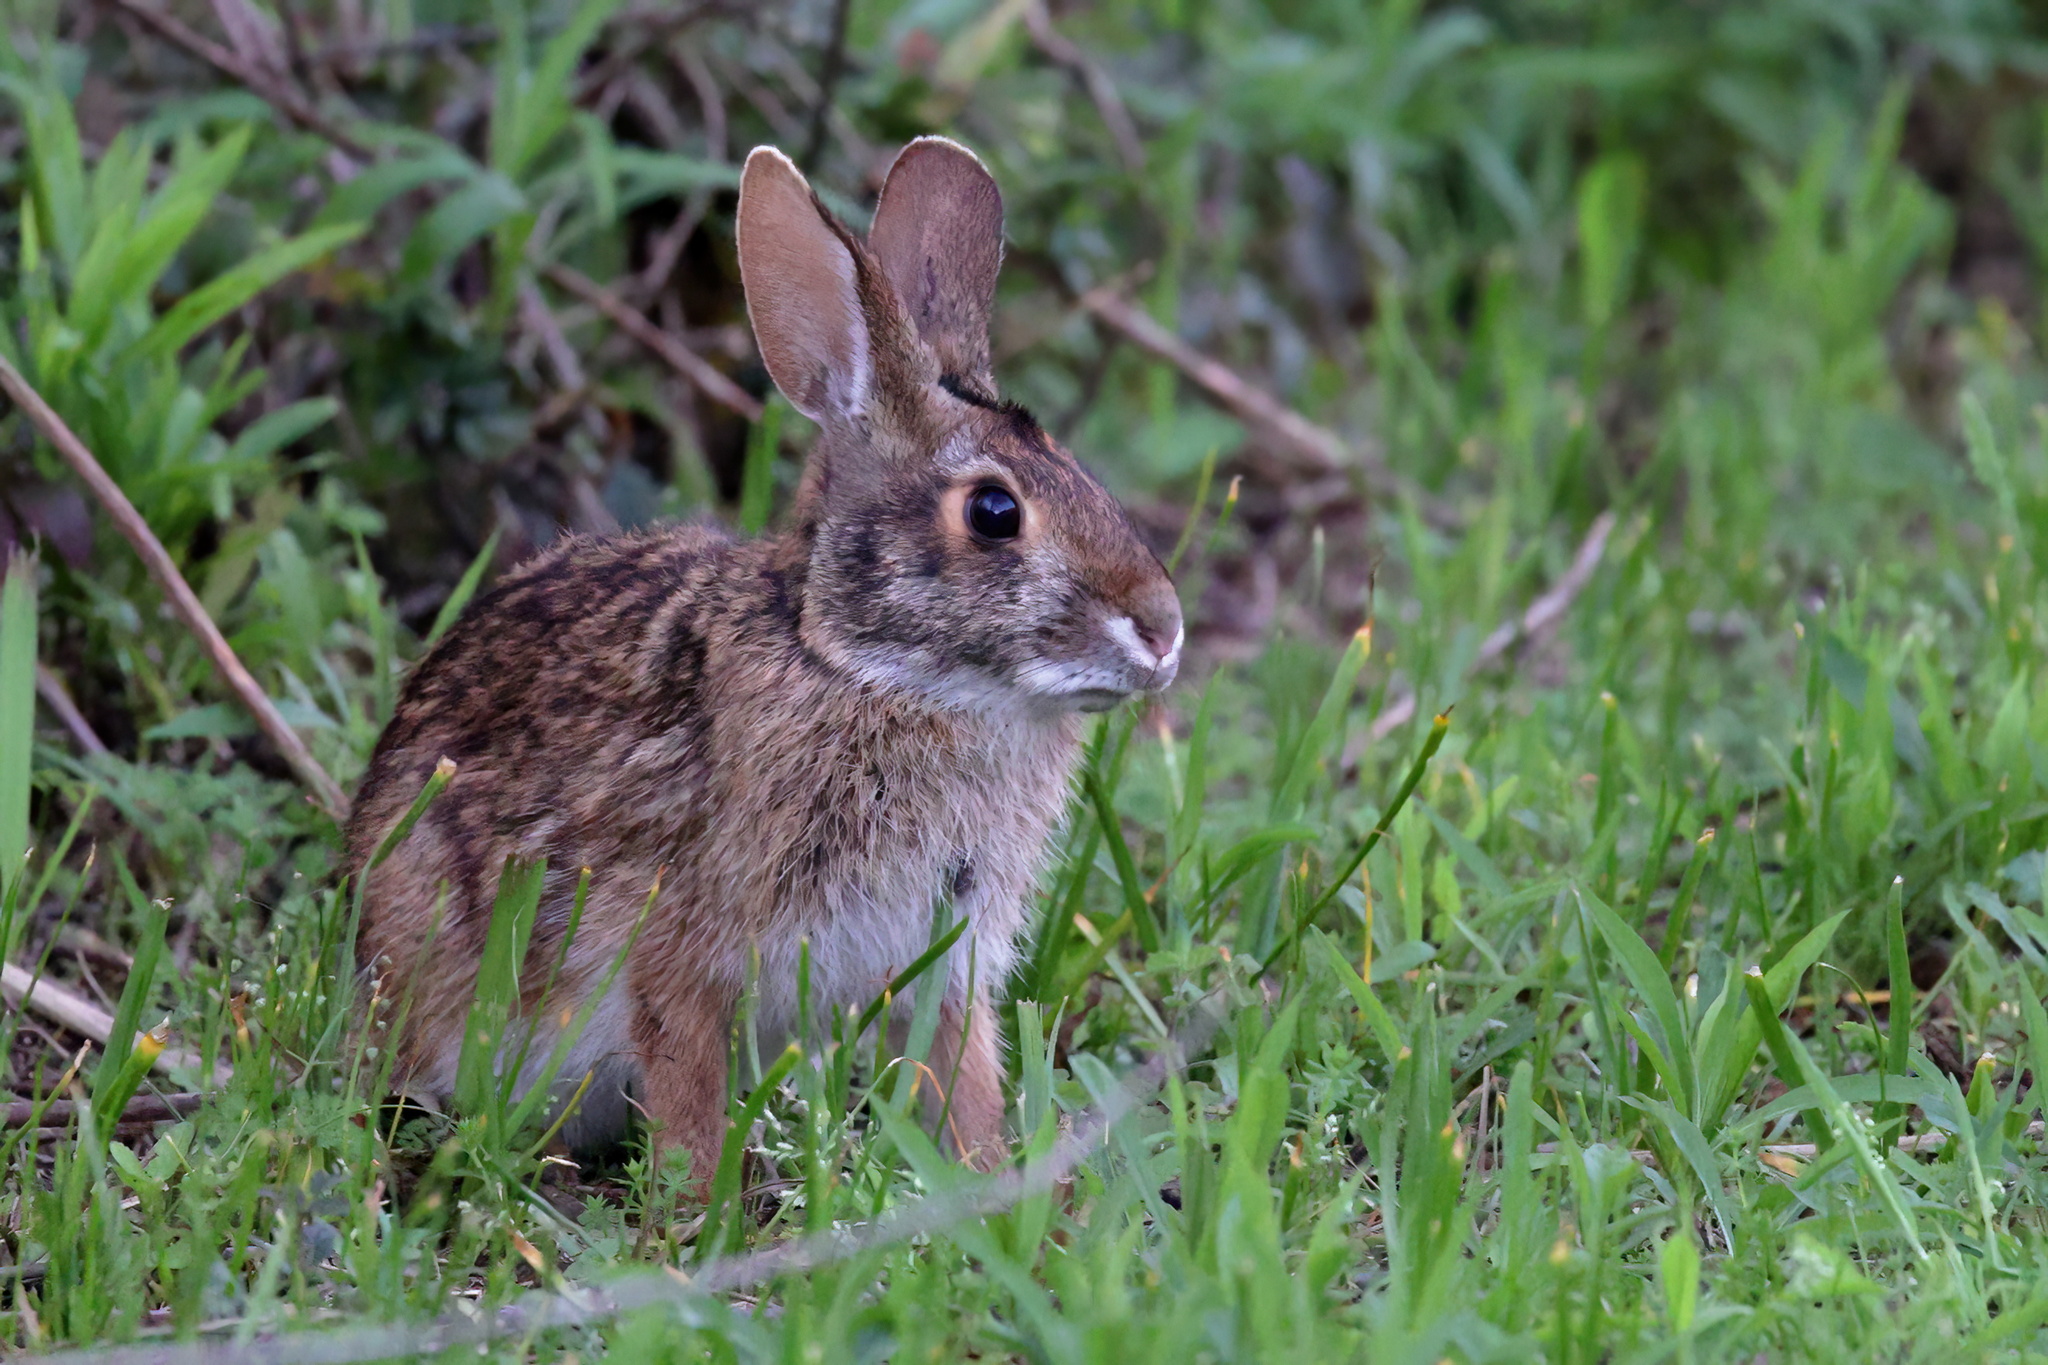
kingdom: Animalia
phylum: Chordata
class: Mammalia
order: Lagomorpha
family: Leporidae
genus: Sylvilagus
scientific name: Sylvilagus aquaticus
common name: Swamp rabbit
